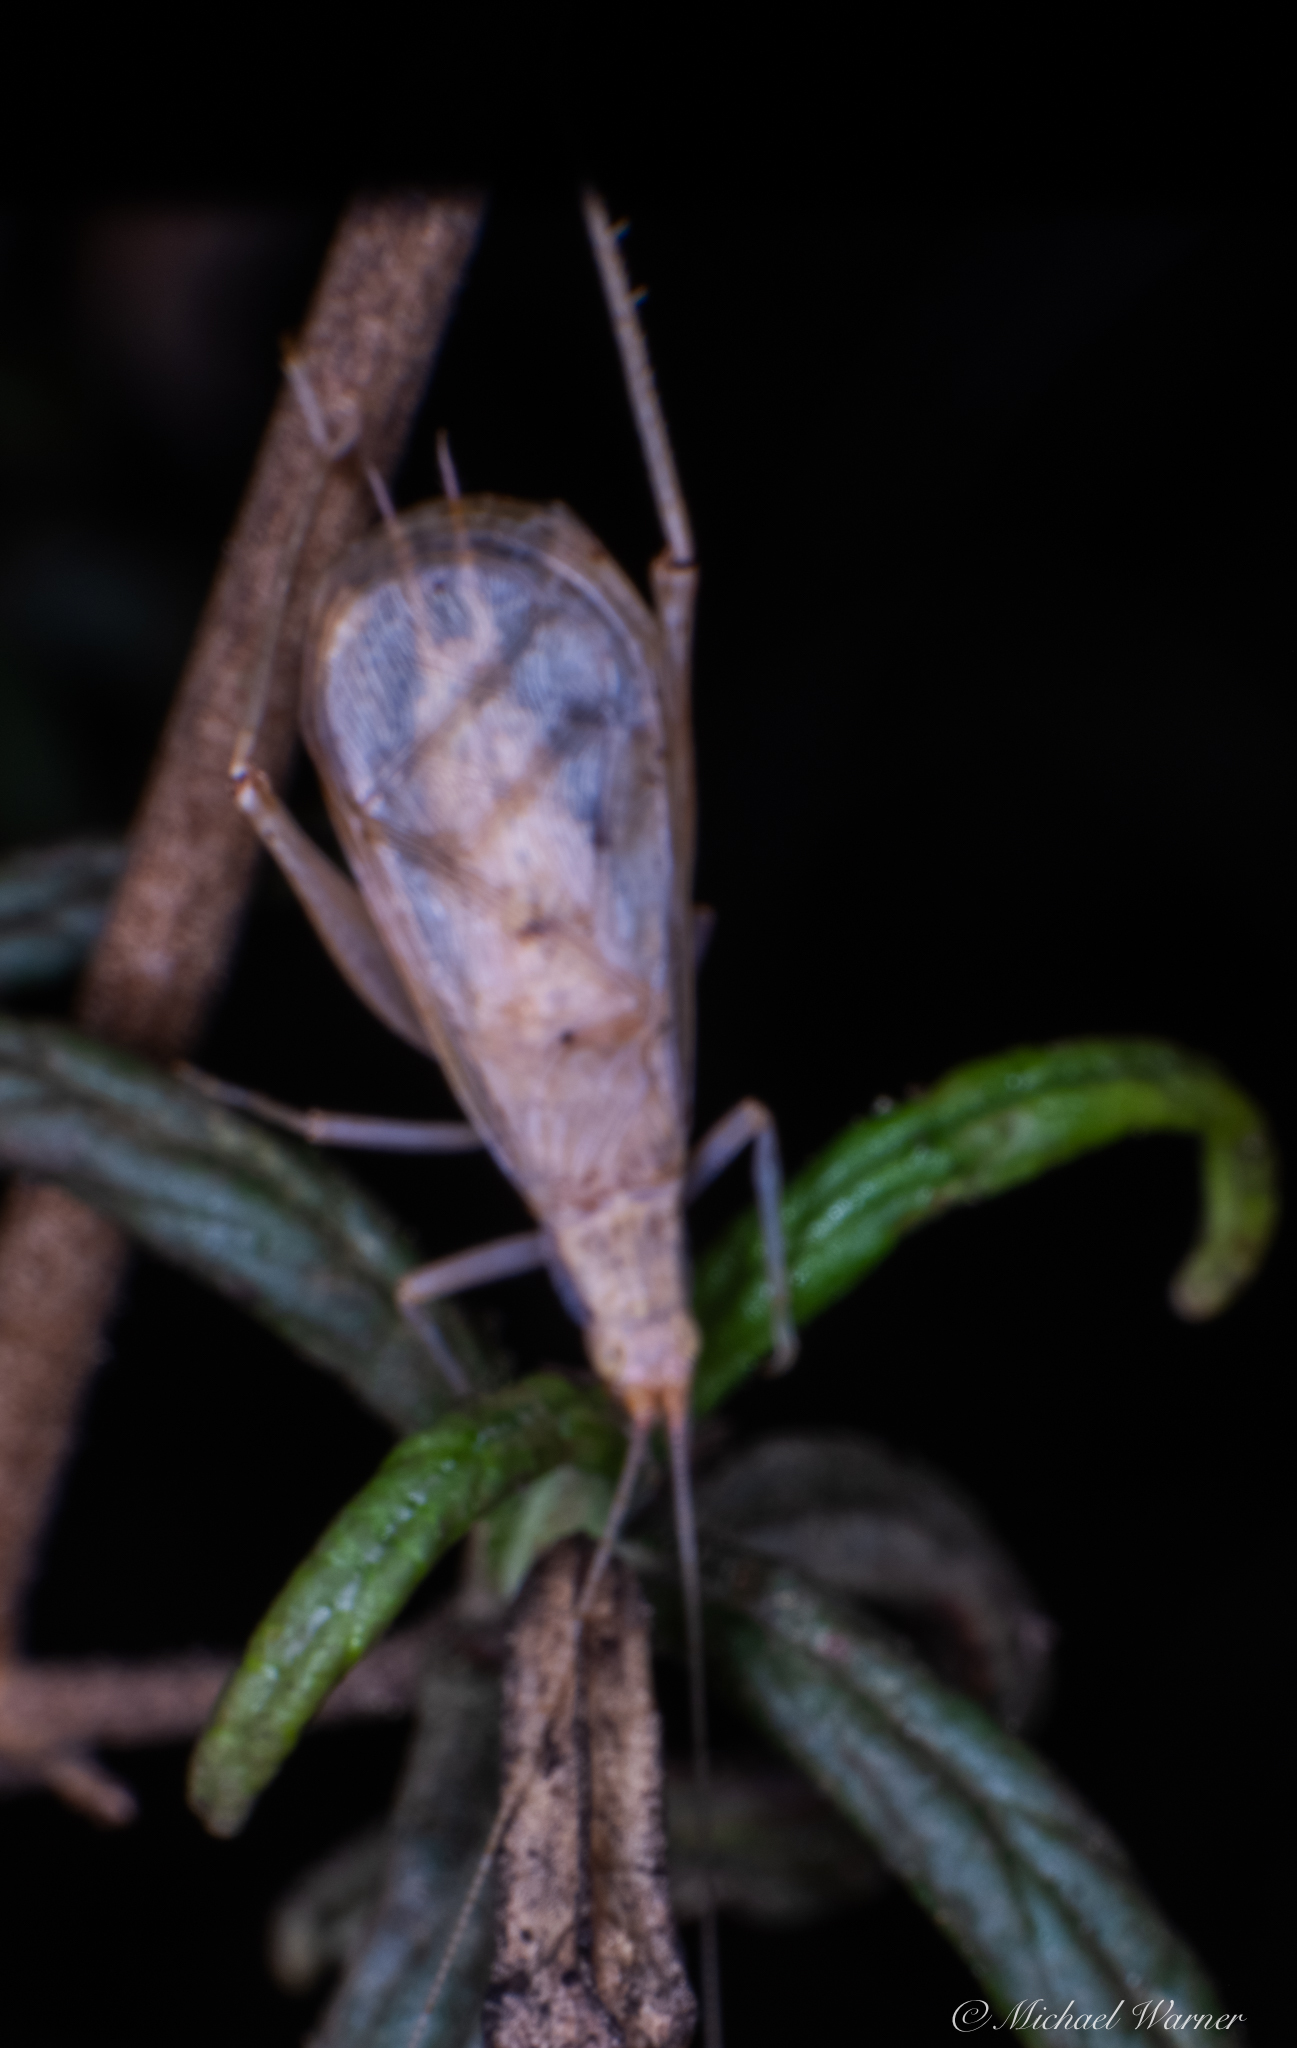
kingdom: Animalia
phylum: Arthropoda
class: Insecta
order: Orthoptera
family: Gryllidae
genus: Oecanthus
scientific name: Oecanthus californicus
